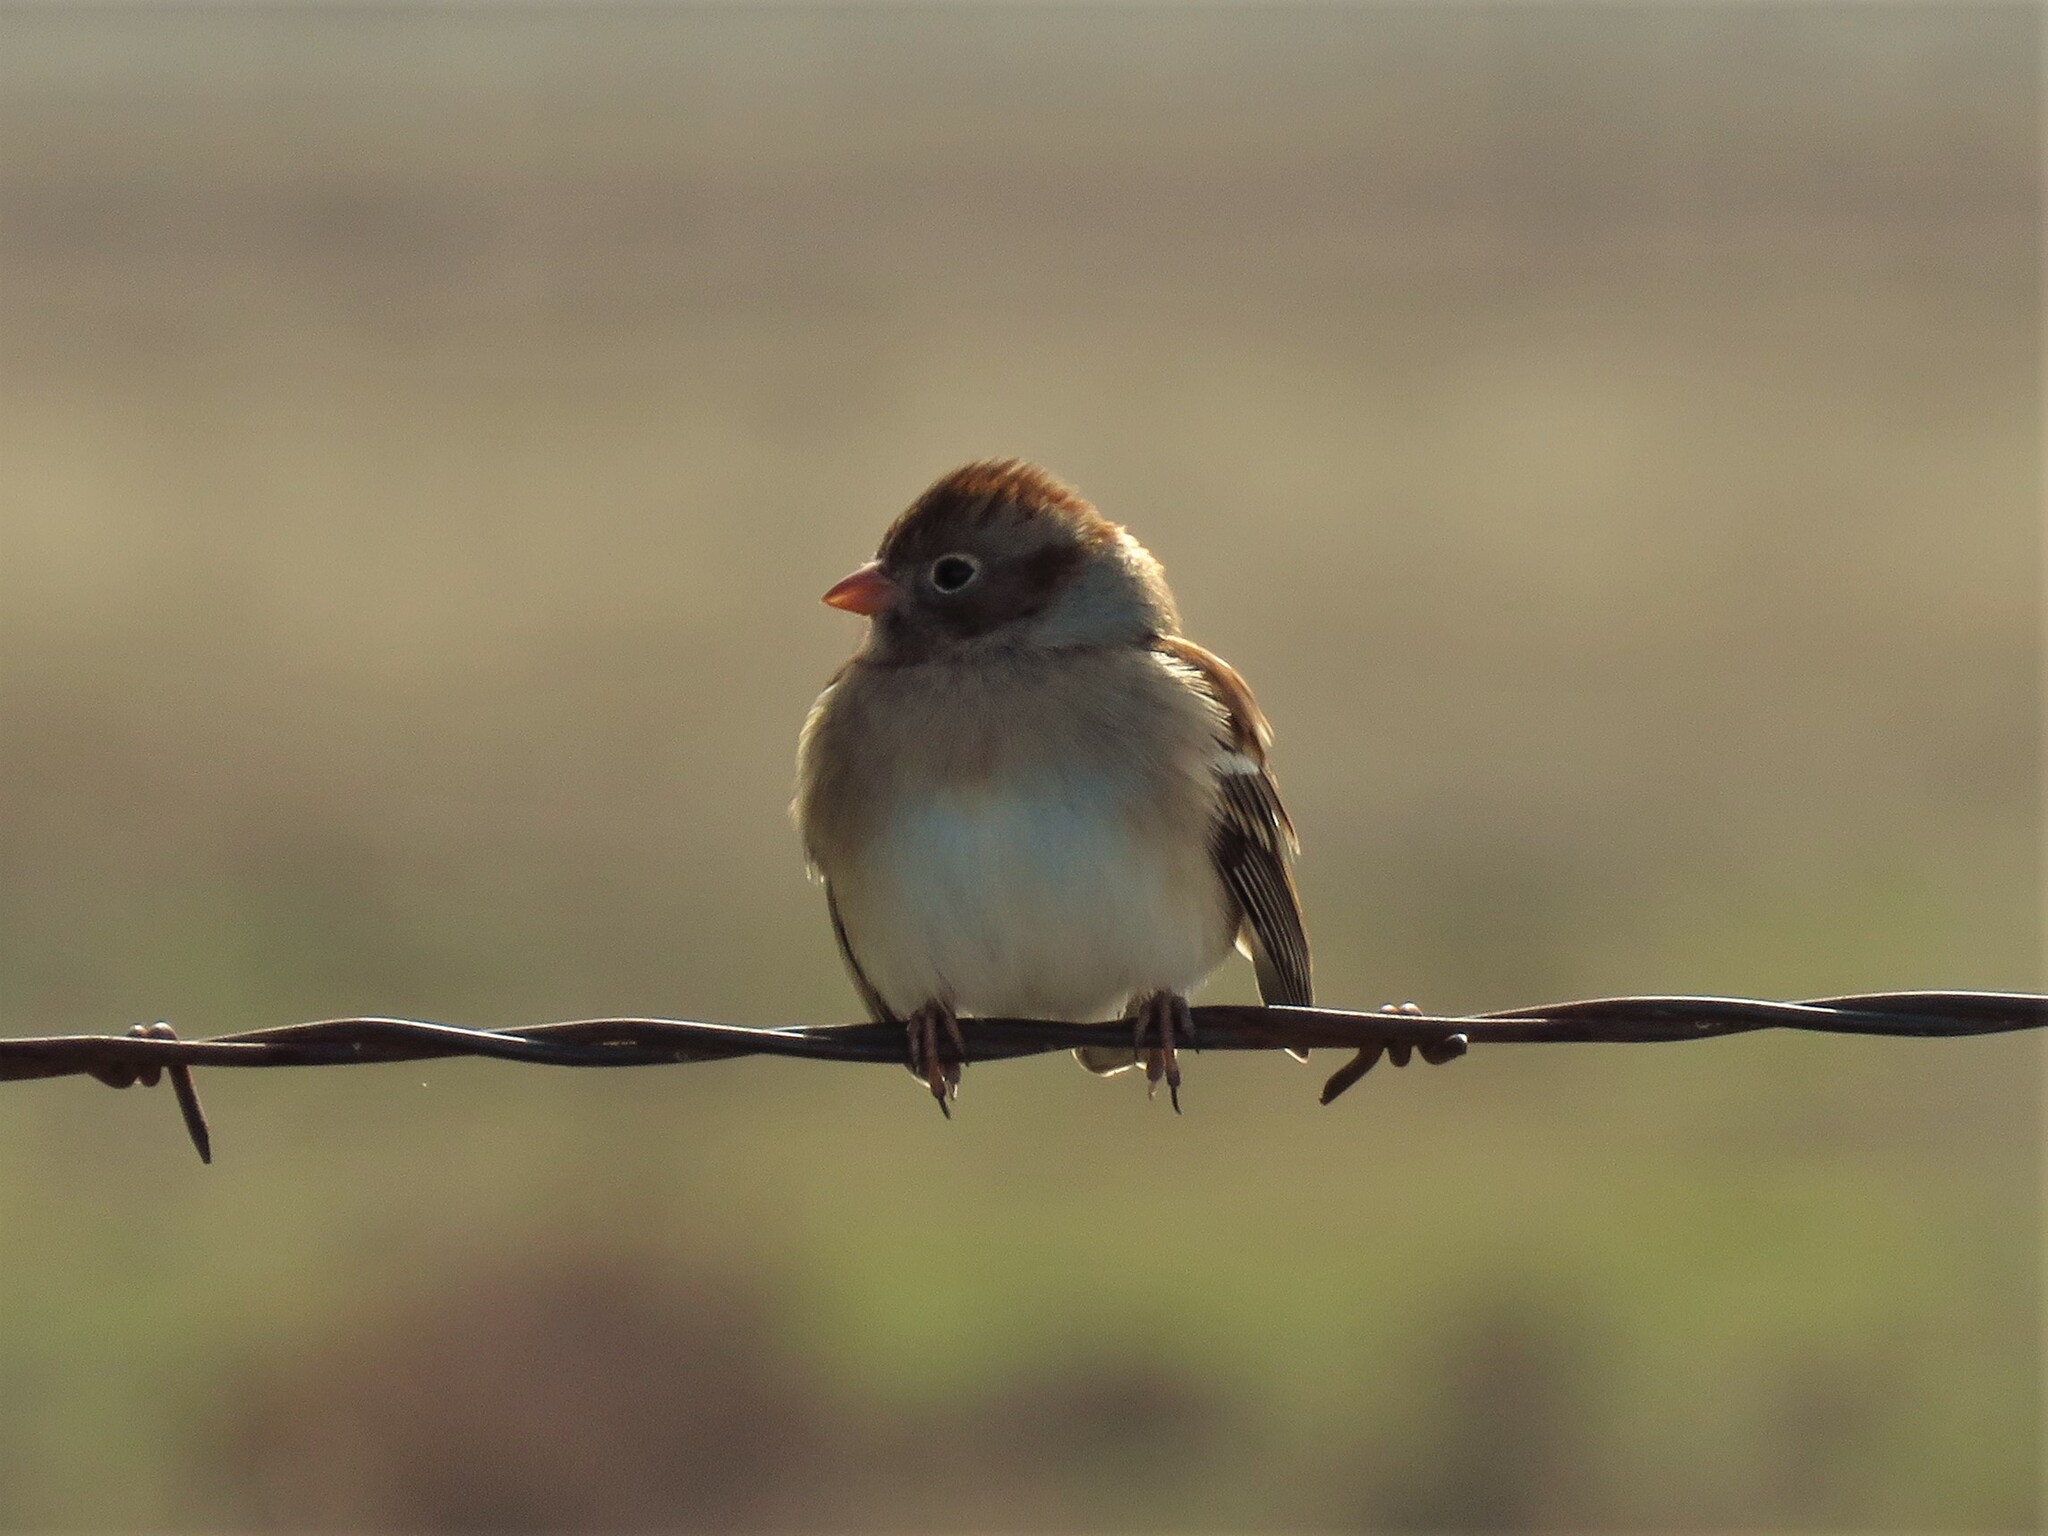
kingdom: Animalia
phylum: Chordata
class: Aves
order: Passeriformes
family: Passerellidae
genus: Spizella
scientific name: Spizella pusilla
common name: Field sparrow
